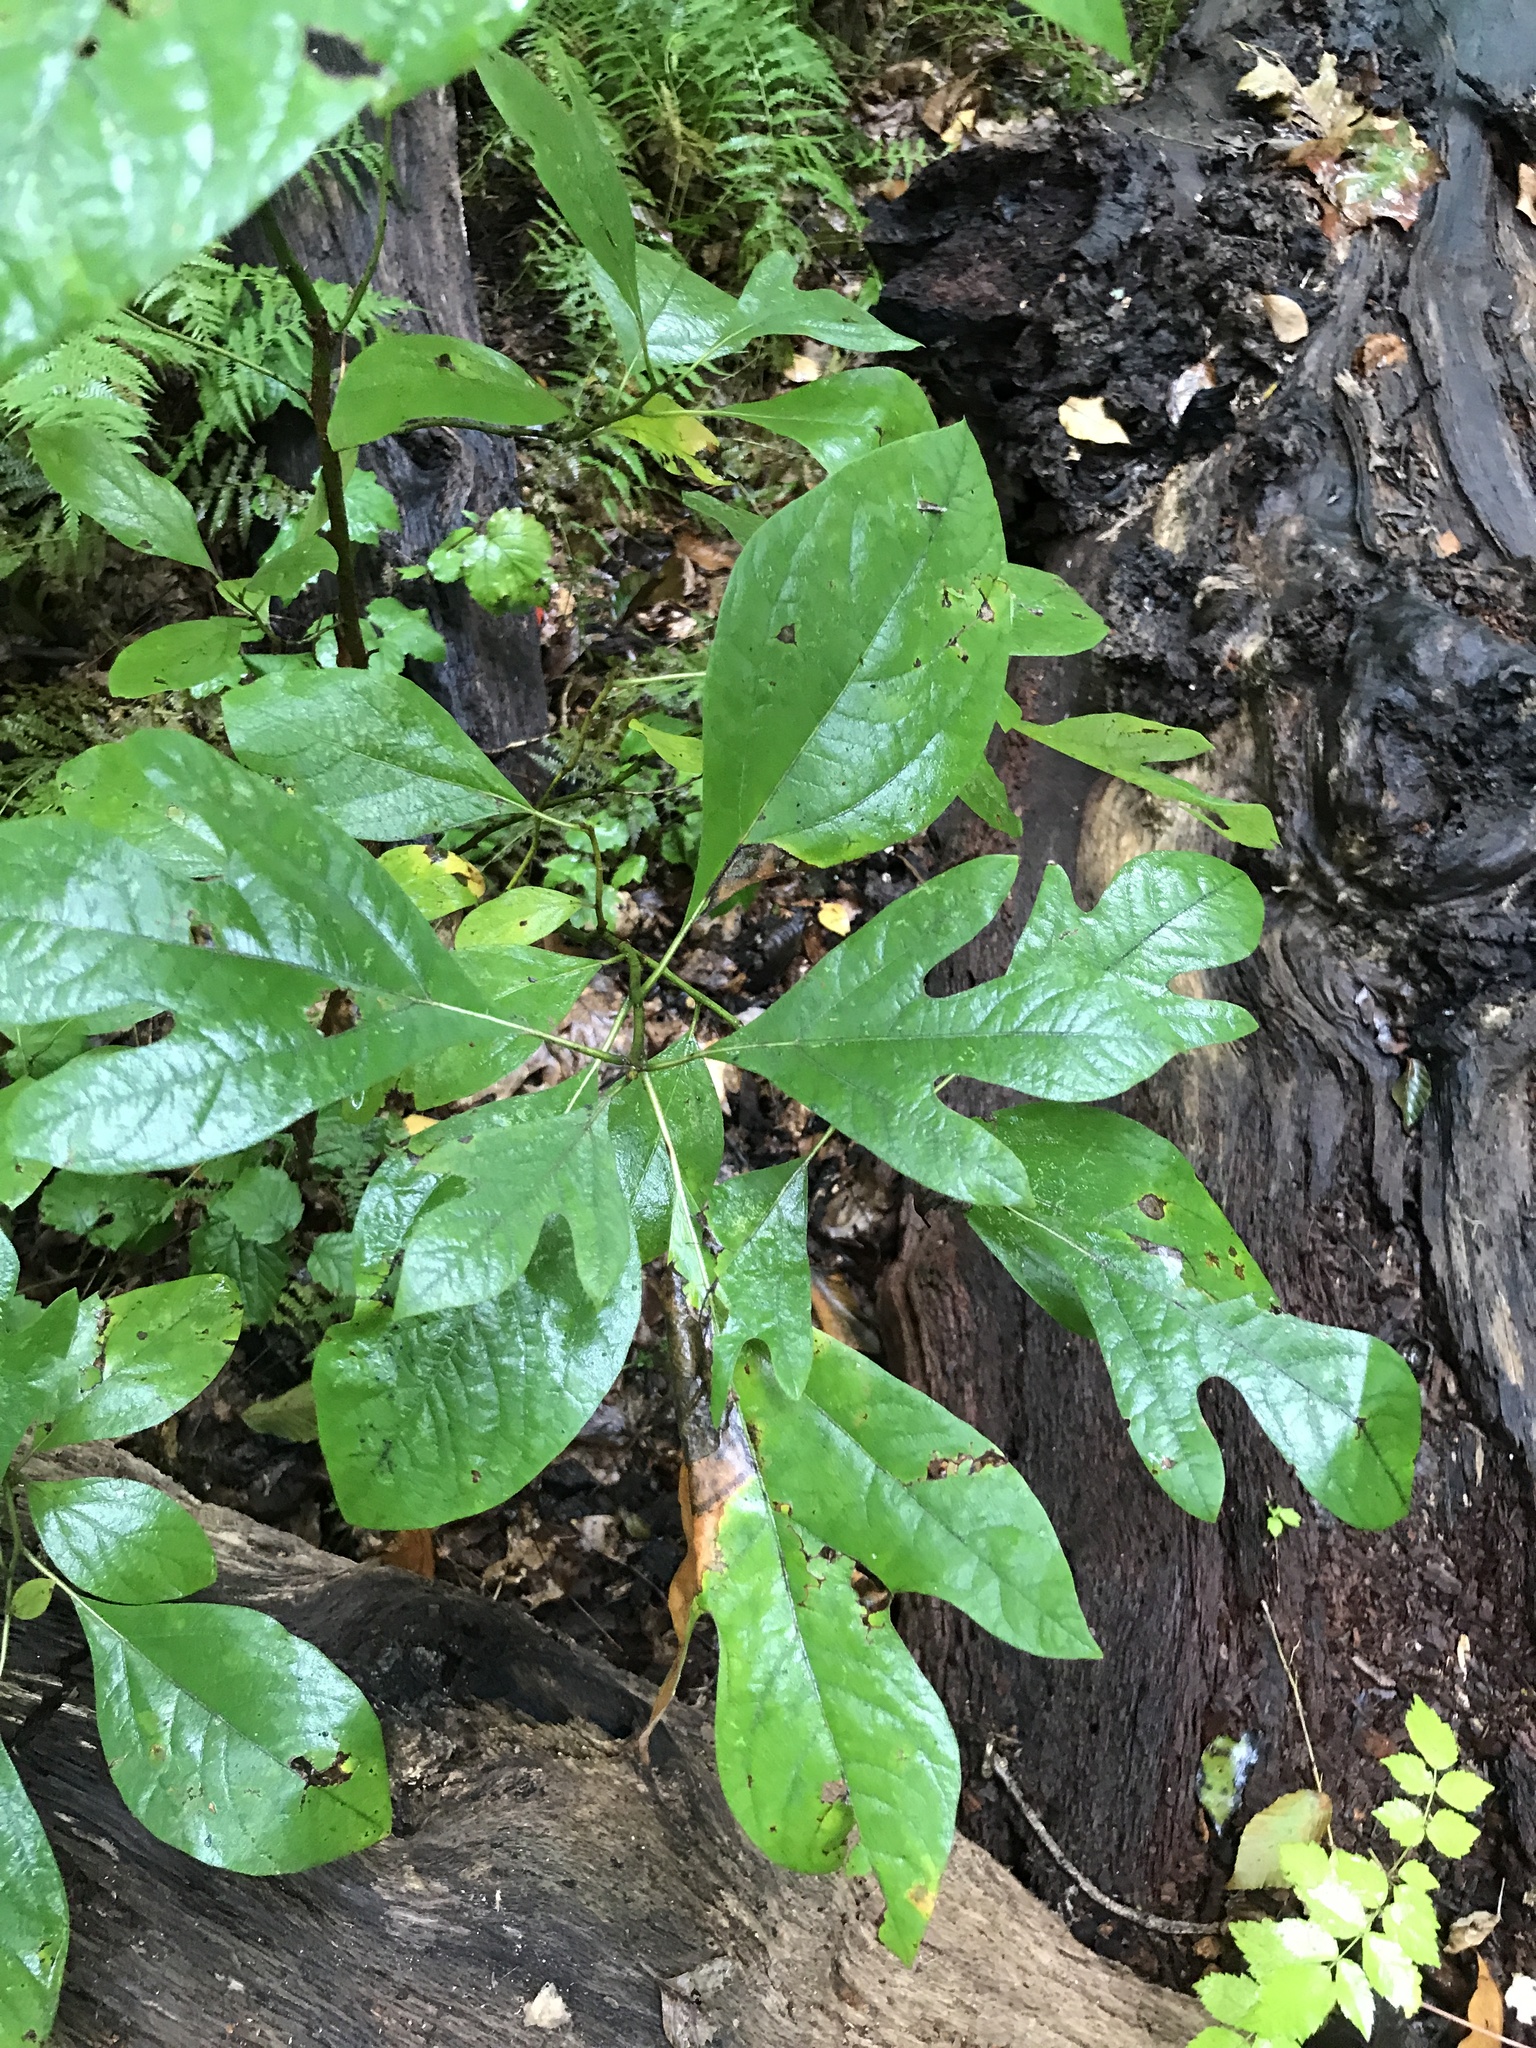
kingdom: Plantae
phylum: Tracheophyta
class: Magnoliopsida
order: Laurales
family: Lauraceae
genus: Sassafras
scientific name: Sassafras albidum
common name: Sassafras
